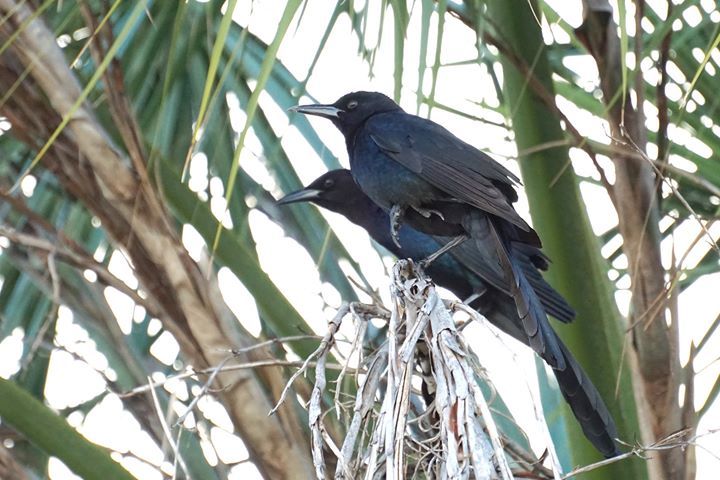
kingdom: Animalia
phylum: Chordata
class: Aves
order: Passeriformes
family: Icteridae
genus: Quiscalus
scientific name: Quiscalus major
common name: Boat-tailed grackle
